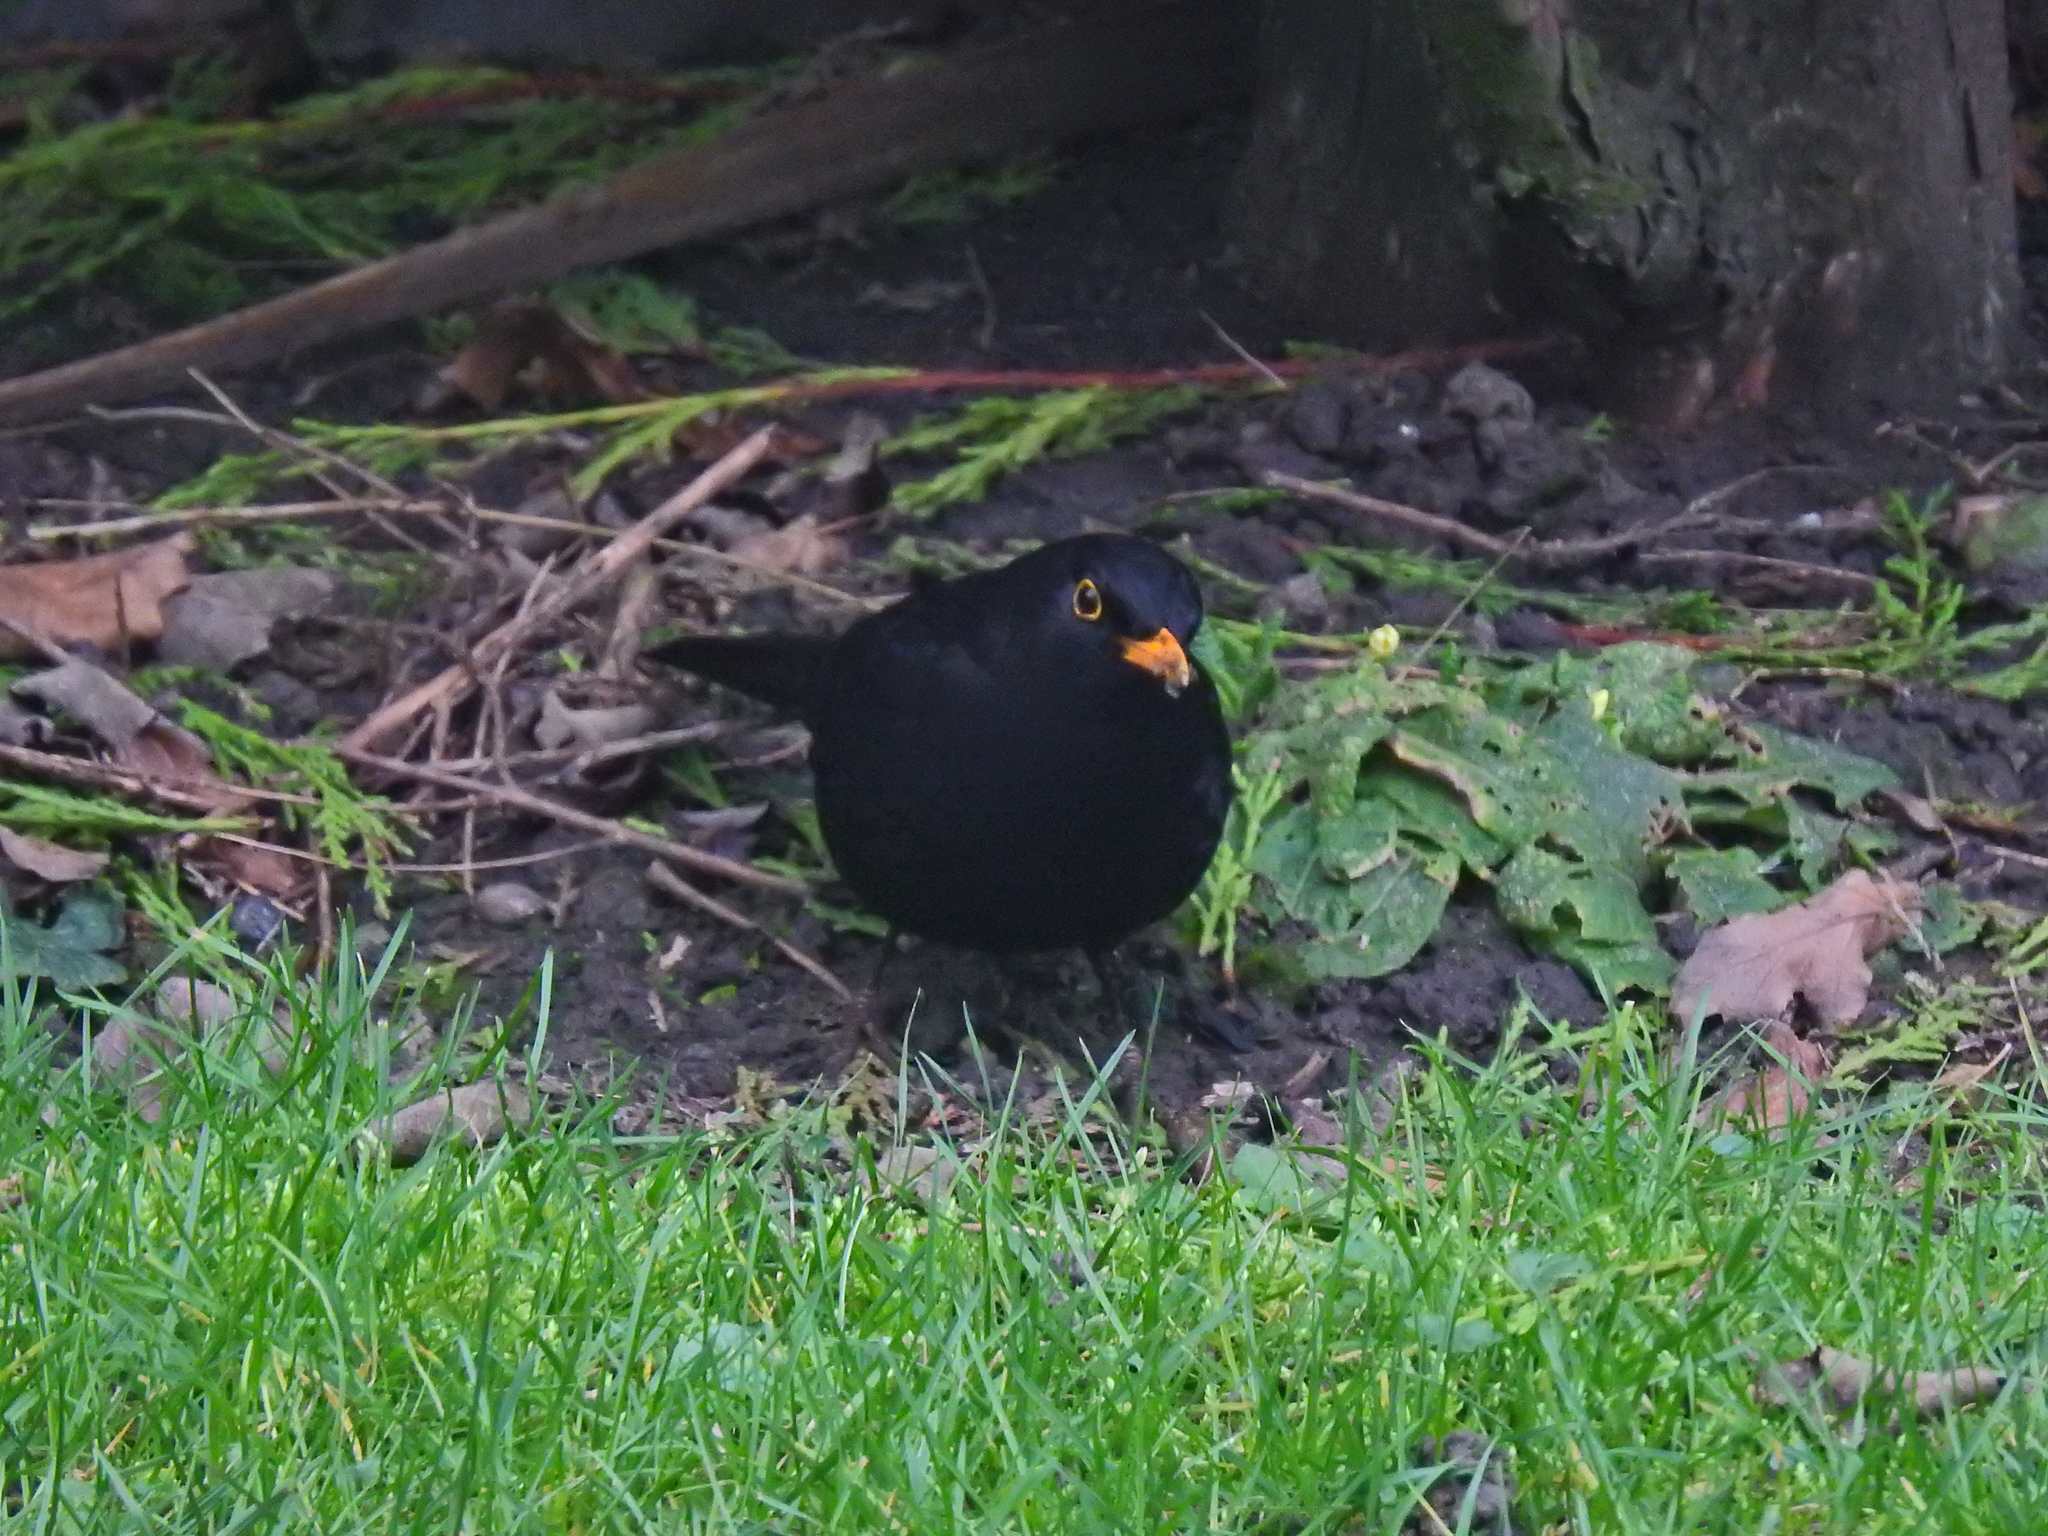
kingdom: Animalia
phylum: Chordata
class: Aves
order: Passeriformes
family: Turdidae
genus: Turdus
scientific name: Turdus merula
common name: Common blackbird
